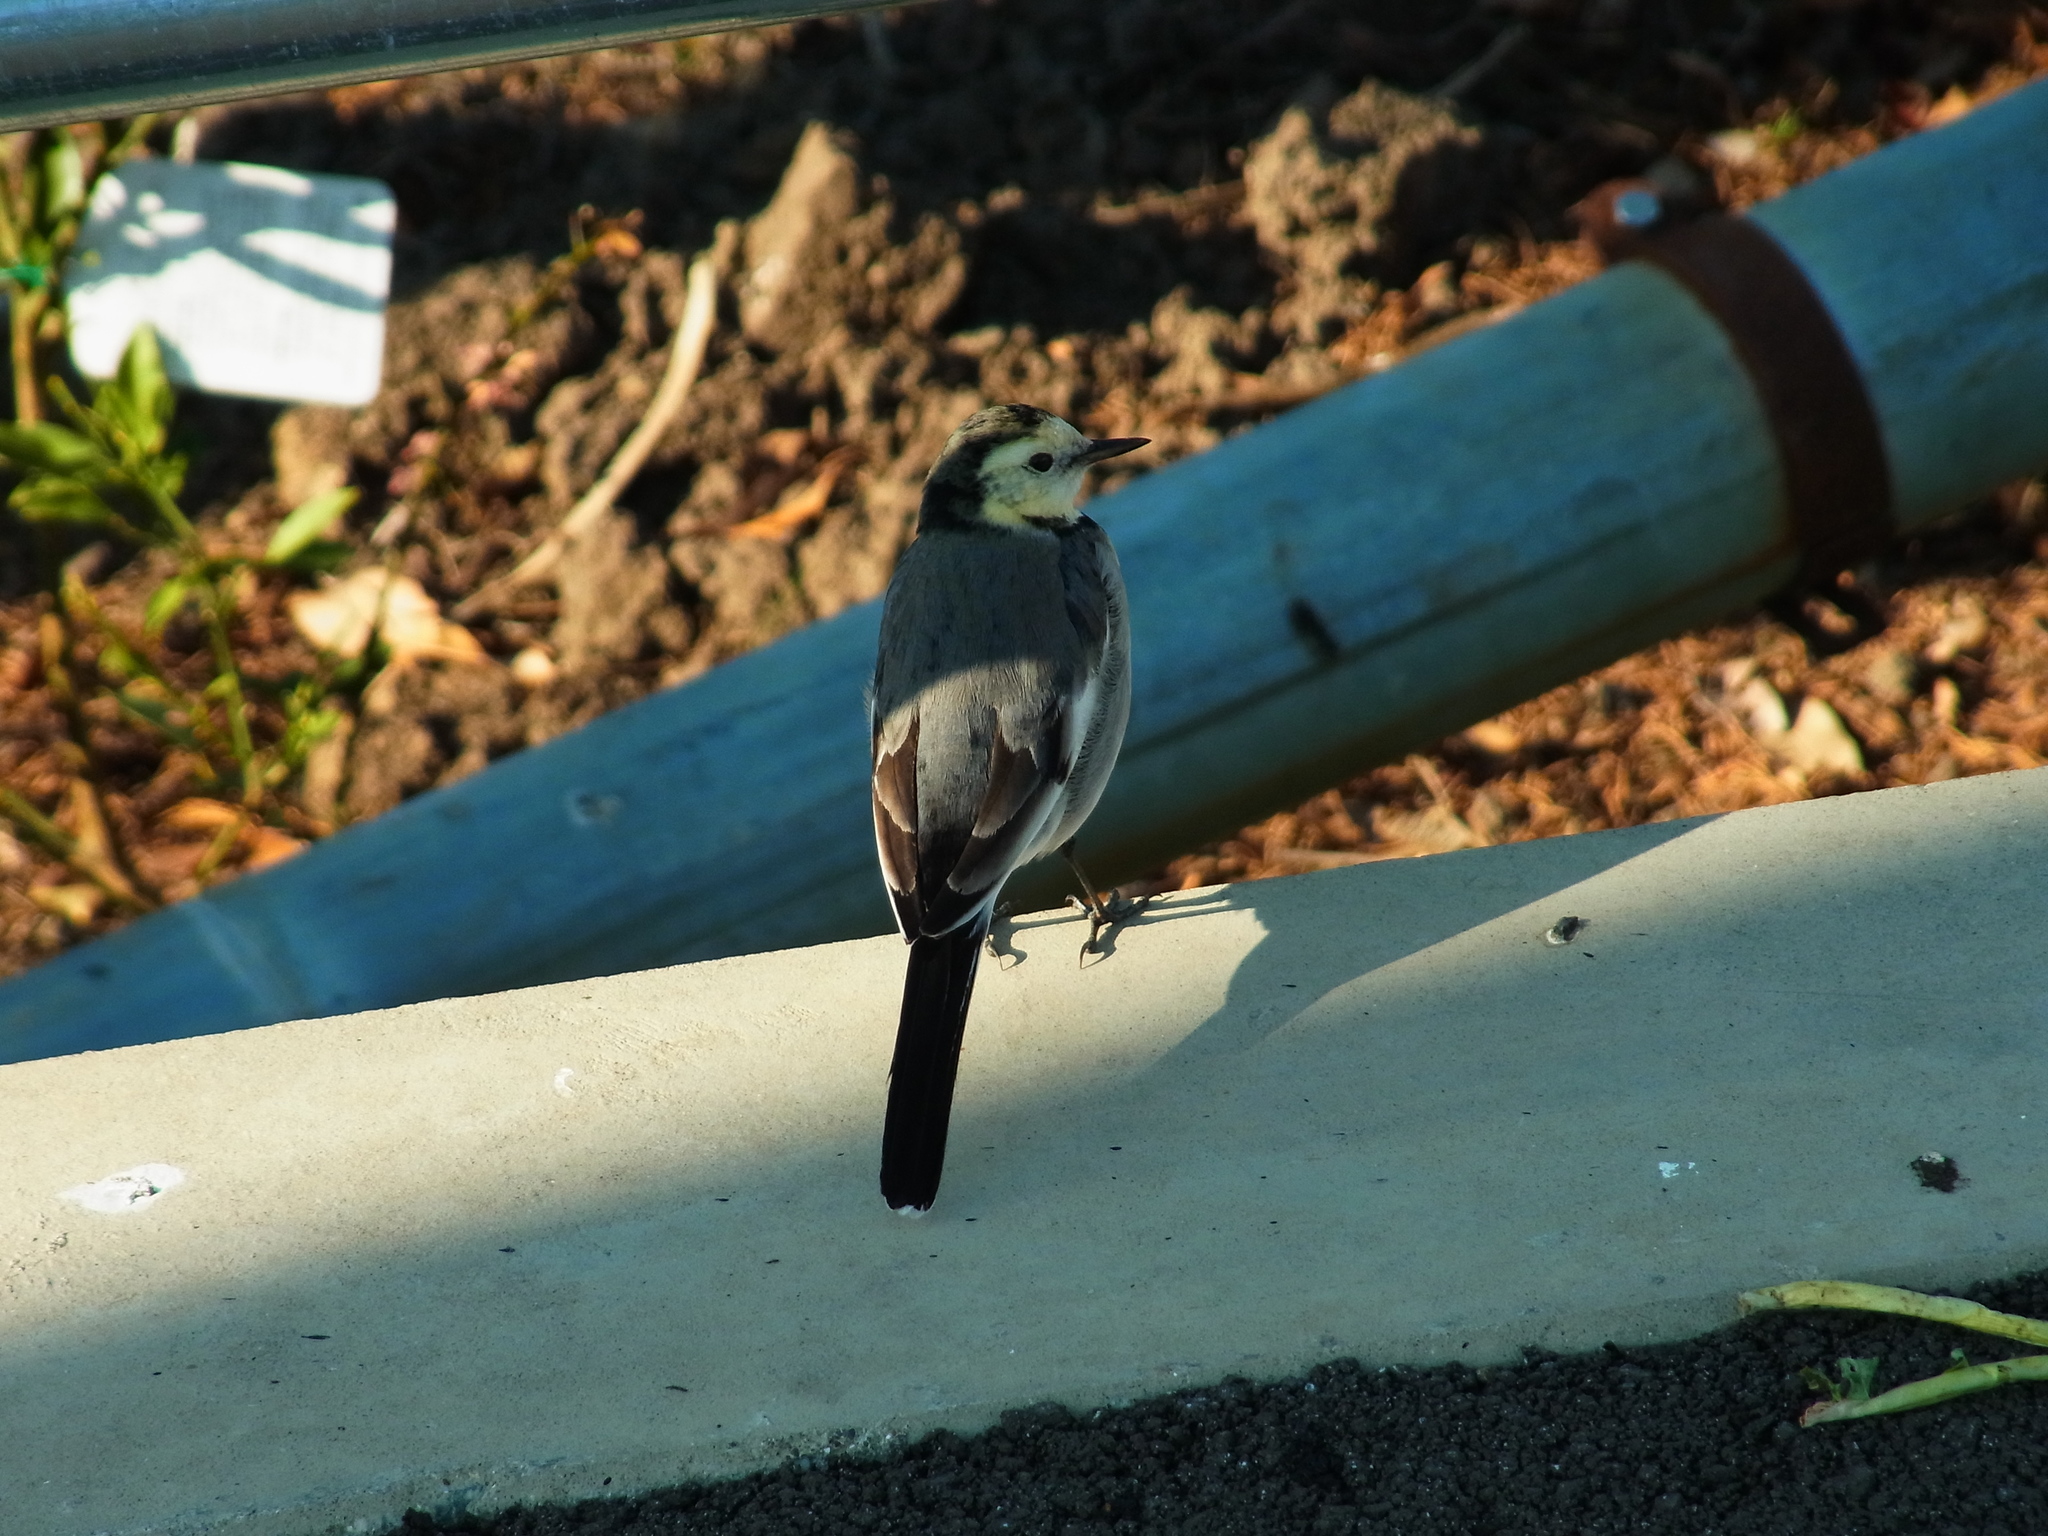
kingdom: Animalia
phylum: Chordata
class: Aves
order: Passeriformes
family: Motacillidae
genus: Motacilla
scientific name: Motacilla alba
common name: White wagtail
